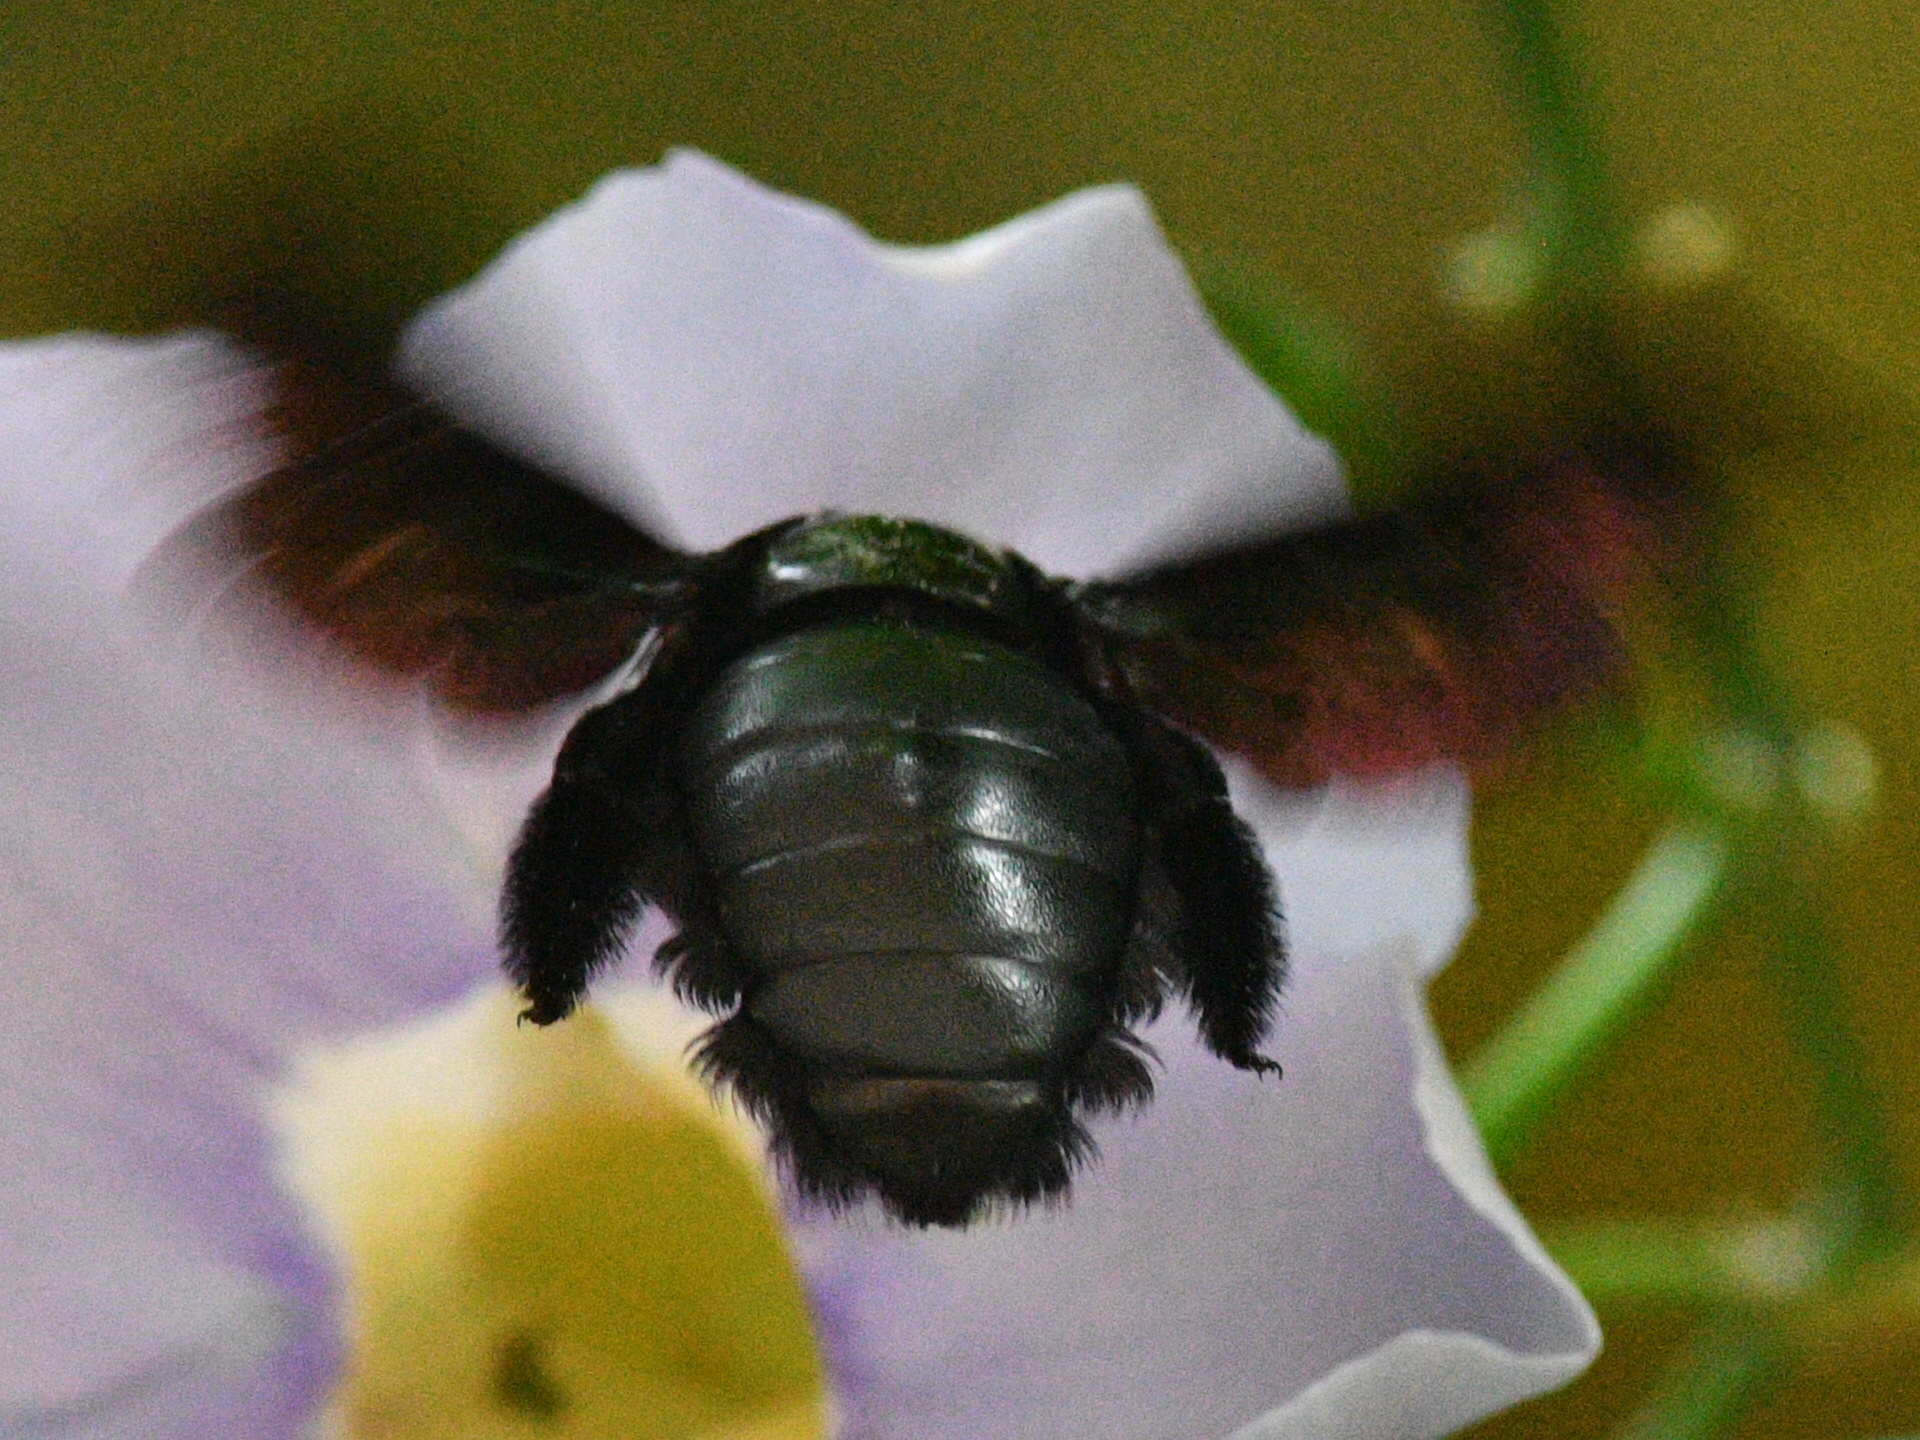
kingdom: Animalia
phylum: Arthropoda
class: Insecta
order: Hymenoptera
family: Apidae
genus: Xylocopa
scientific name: Xylocopa latipes
